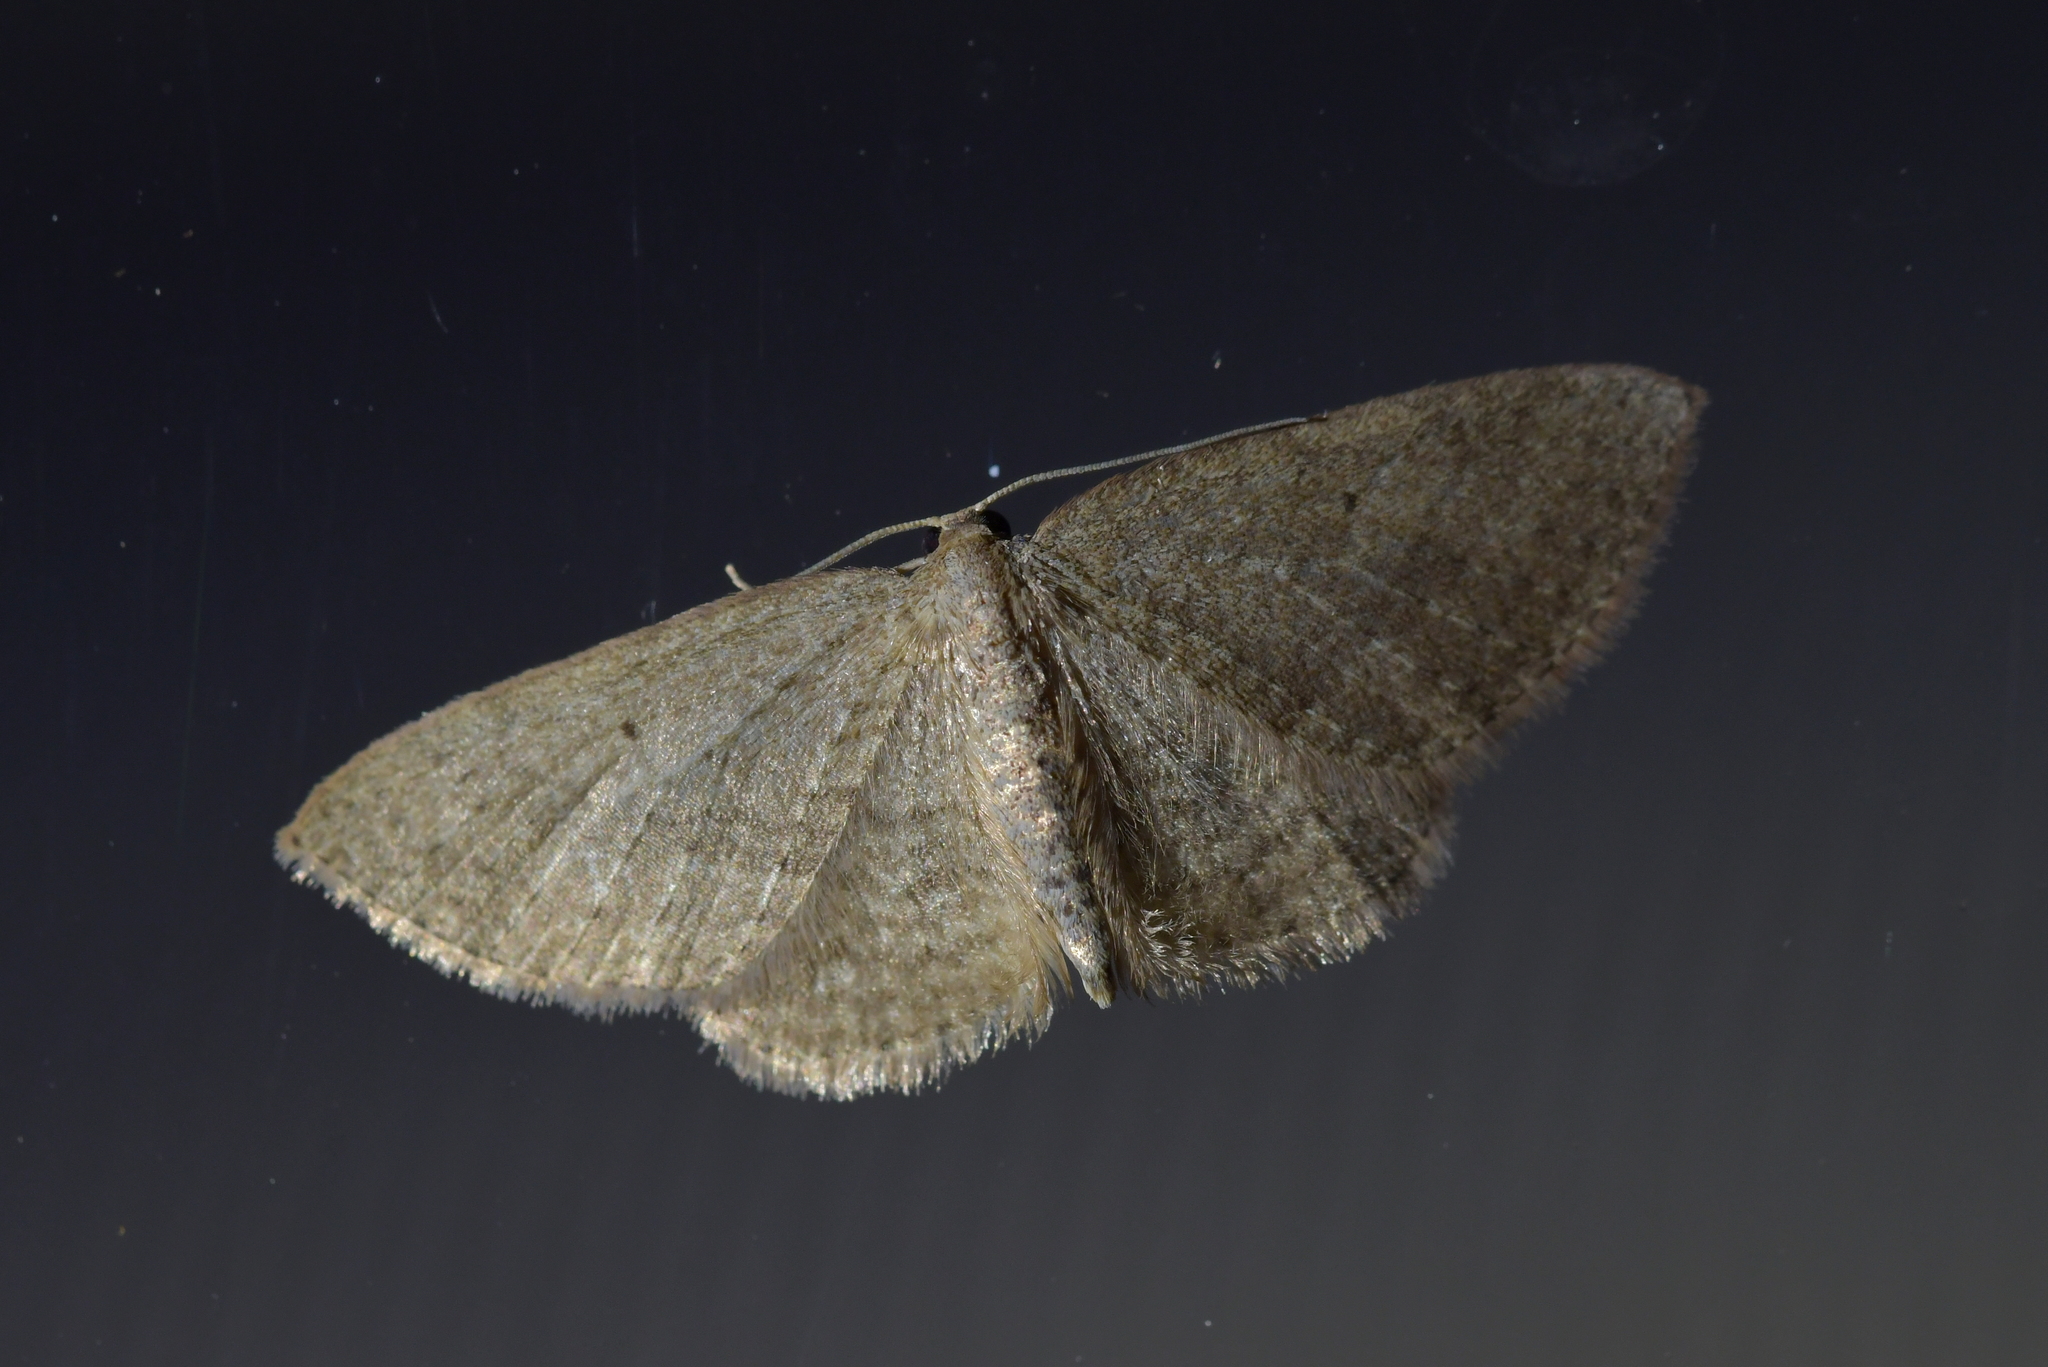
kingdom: Animalia
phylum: Arthropoda
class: Insecta
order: Lepidoptera
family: Geometridae
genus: Poecilasthena
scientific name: Poecilasthena schistaria
